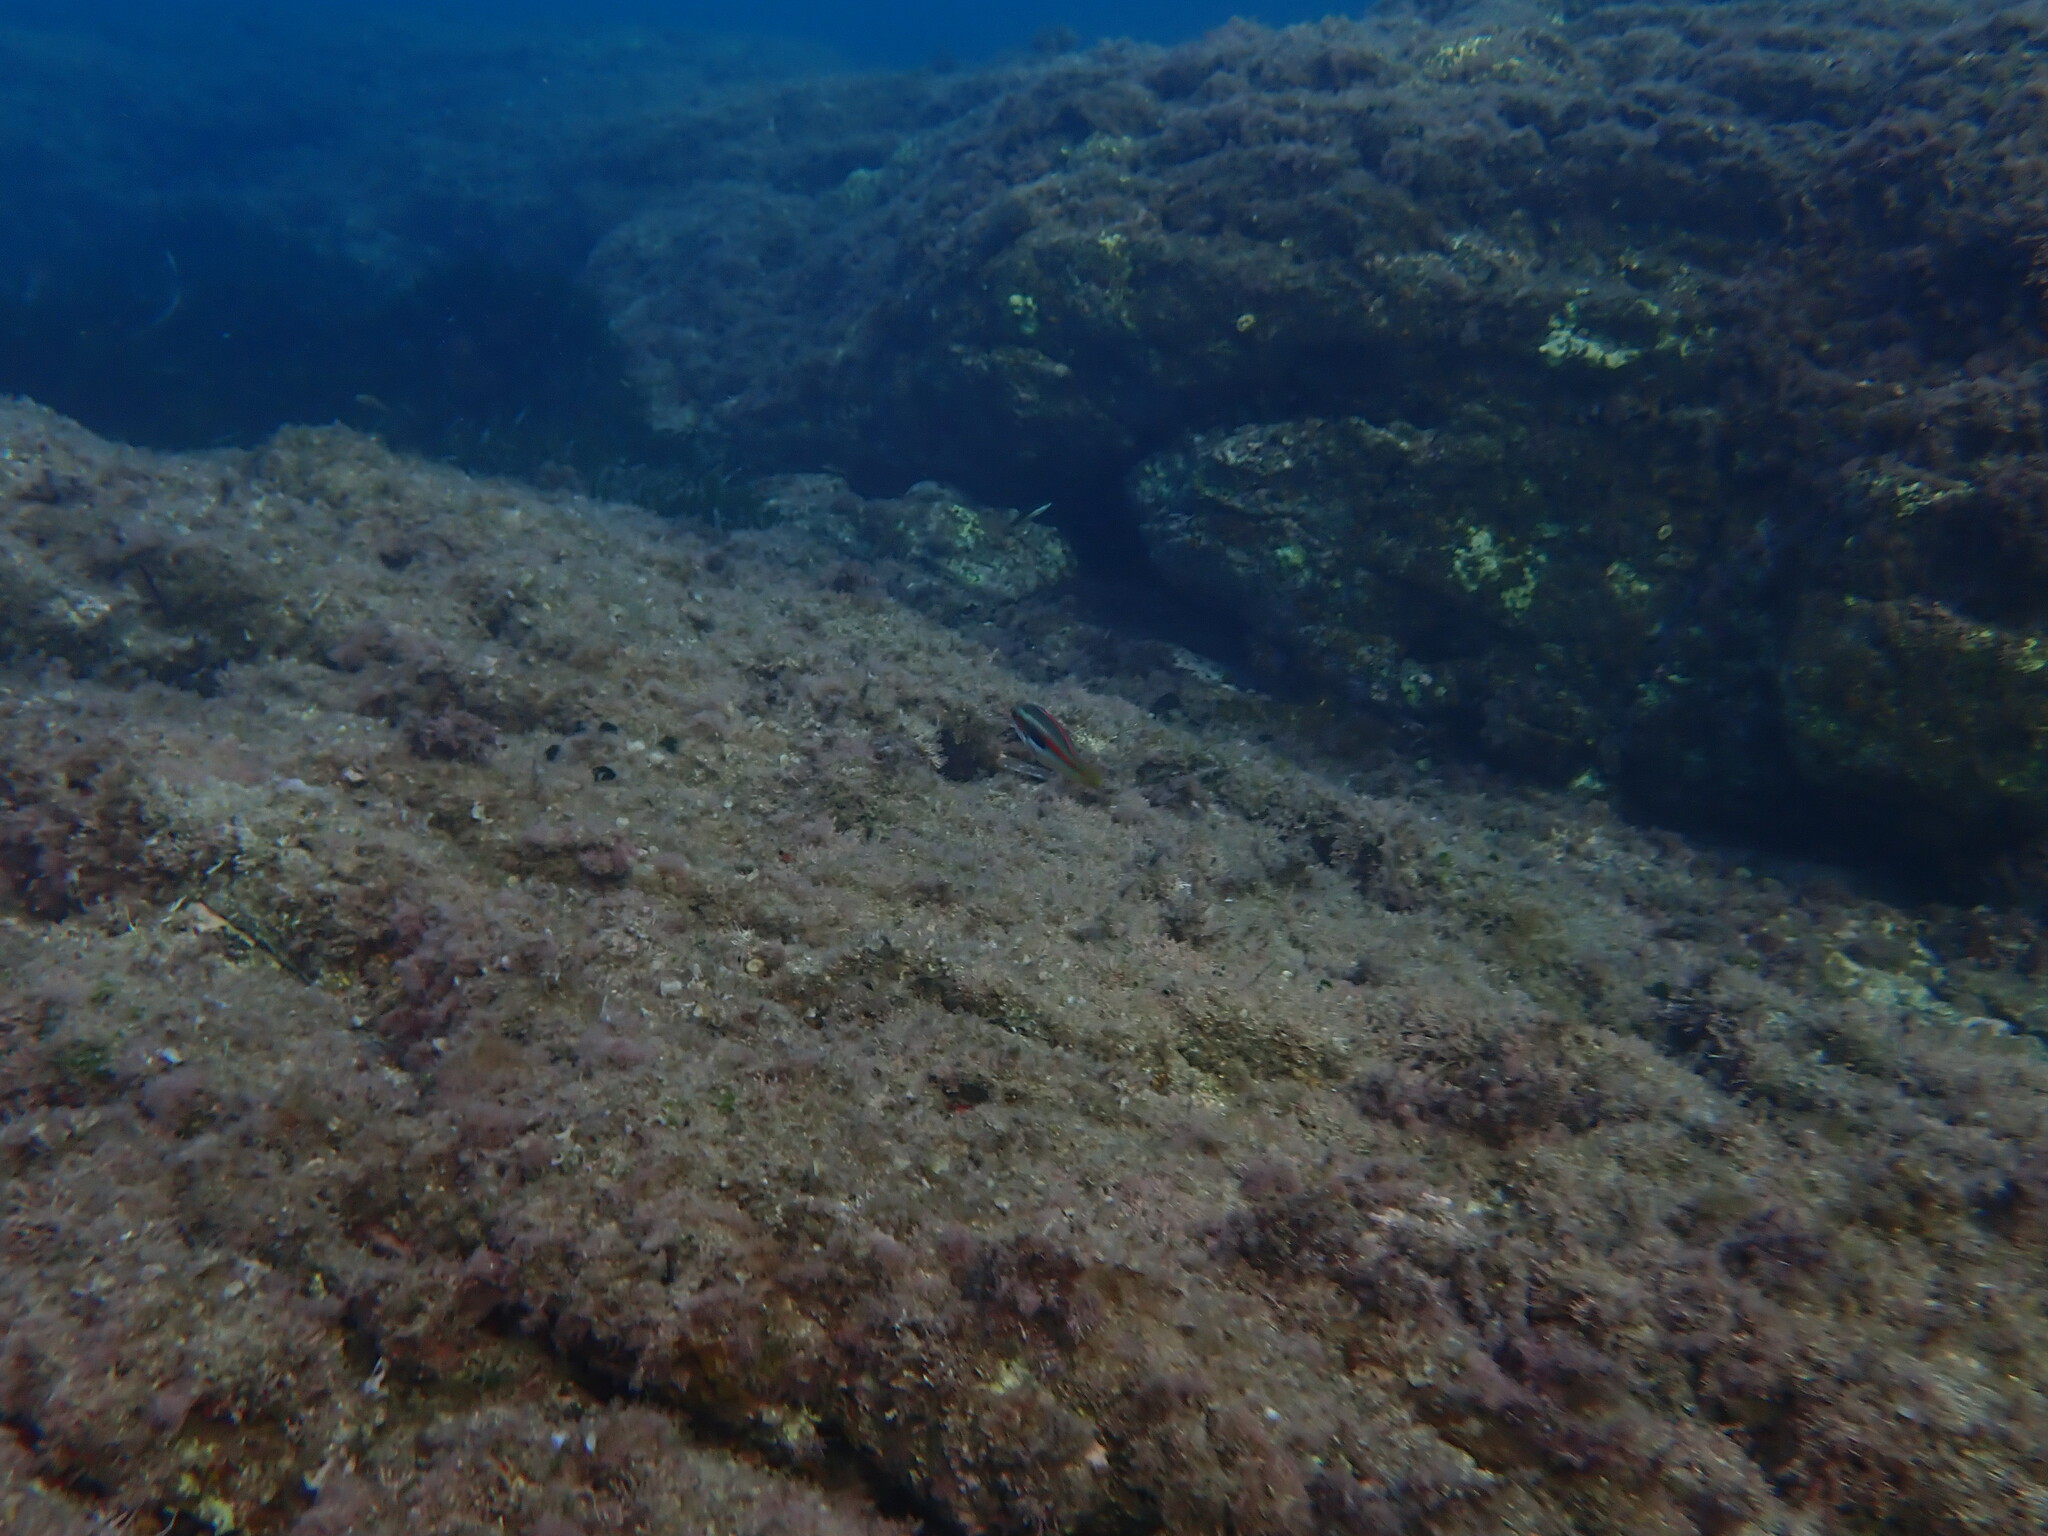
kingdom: Animalia
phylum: Chordata
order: Perciformes
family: Labridae
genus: Coris
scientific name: Coris julis
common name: Rainbow wrasse
